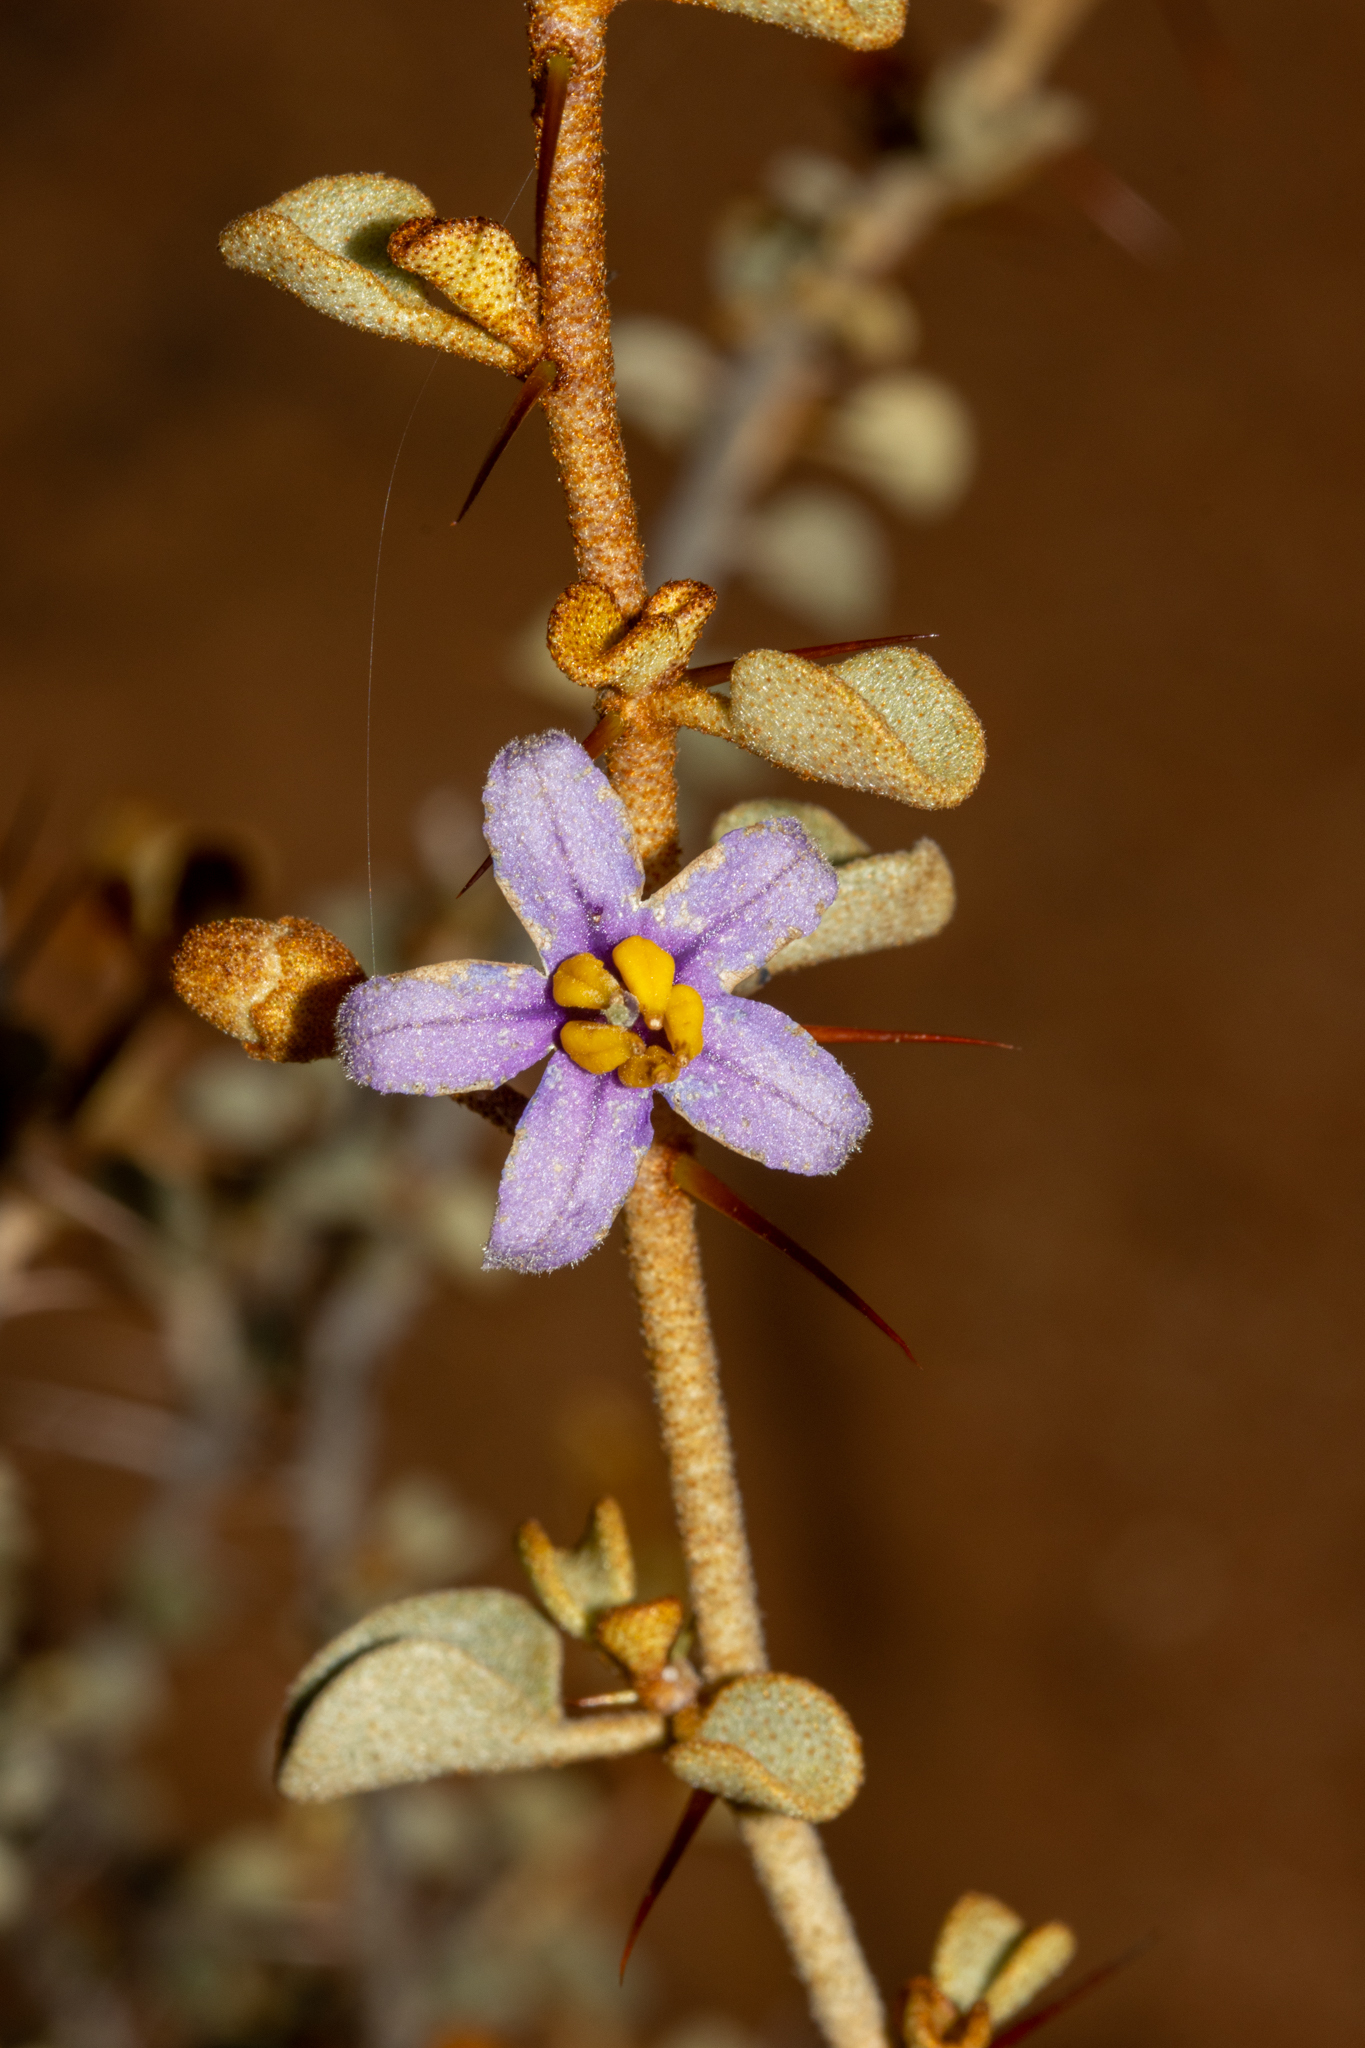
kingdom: Plantae
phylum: Tracheophyta
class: Magnoliopsida
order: Solanales
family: Solanaceae
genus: Solanum
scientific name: Solanum nummularium
